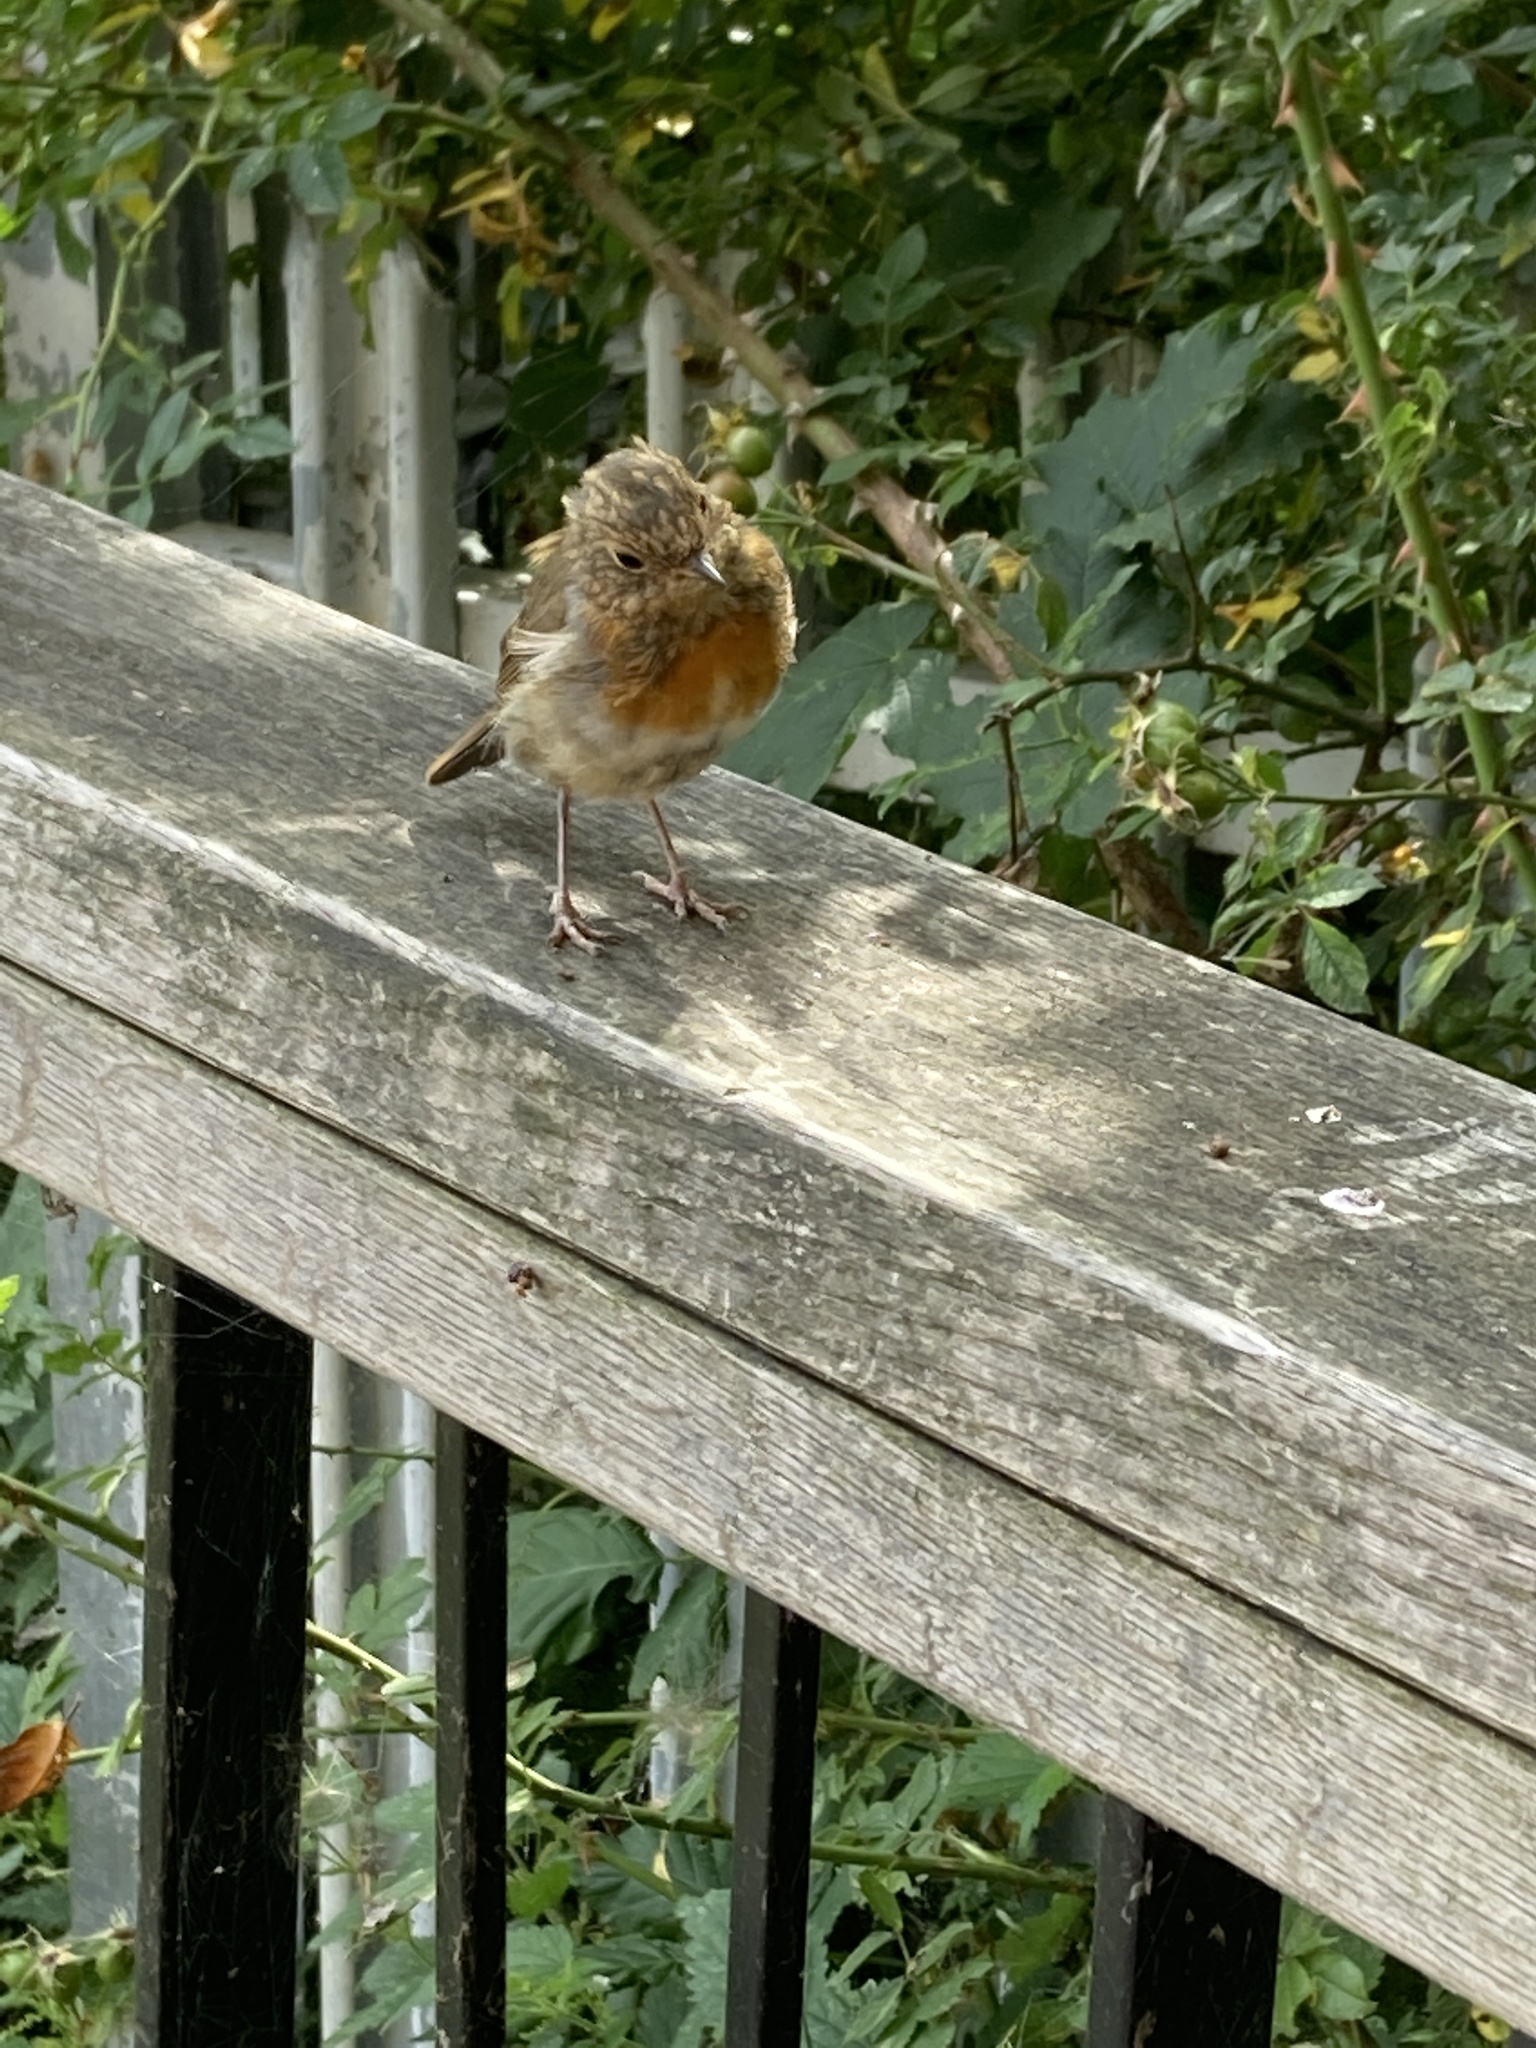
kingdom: Animalia
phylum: Chordata
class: Aves
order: Passeriformes
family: Muscicapidae
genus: Erithacus
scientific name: Erithacus rubecula
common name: European robin
